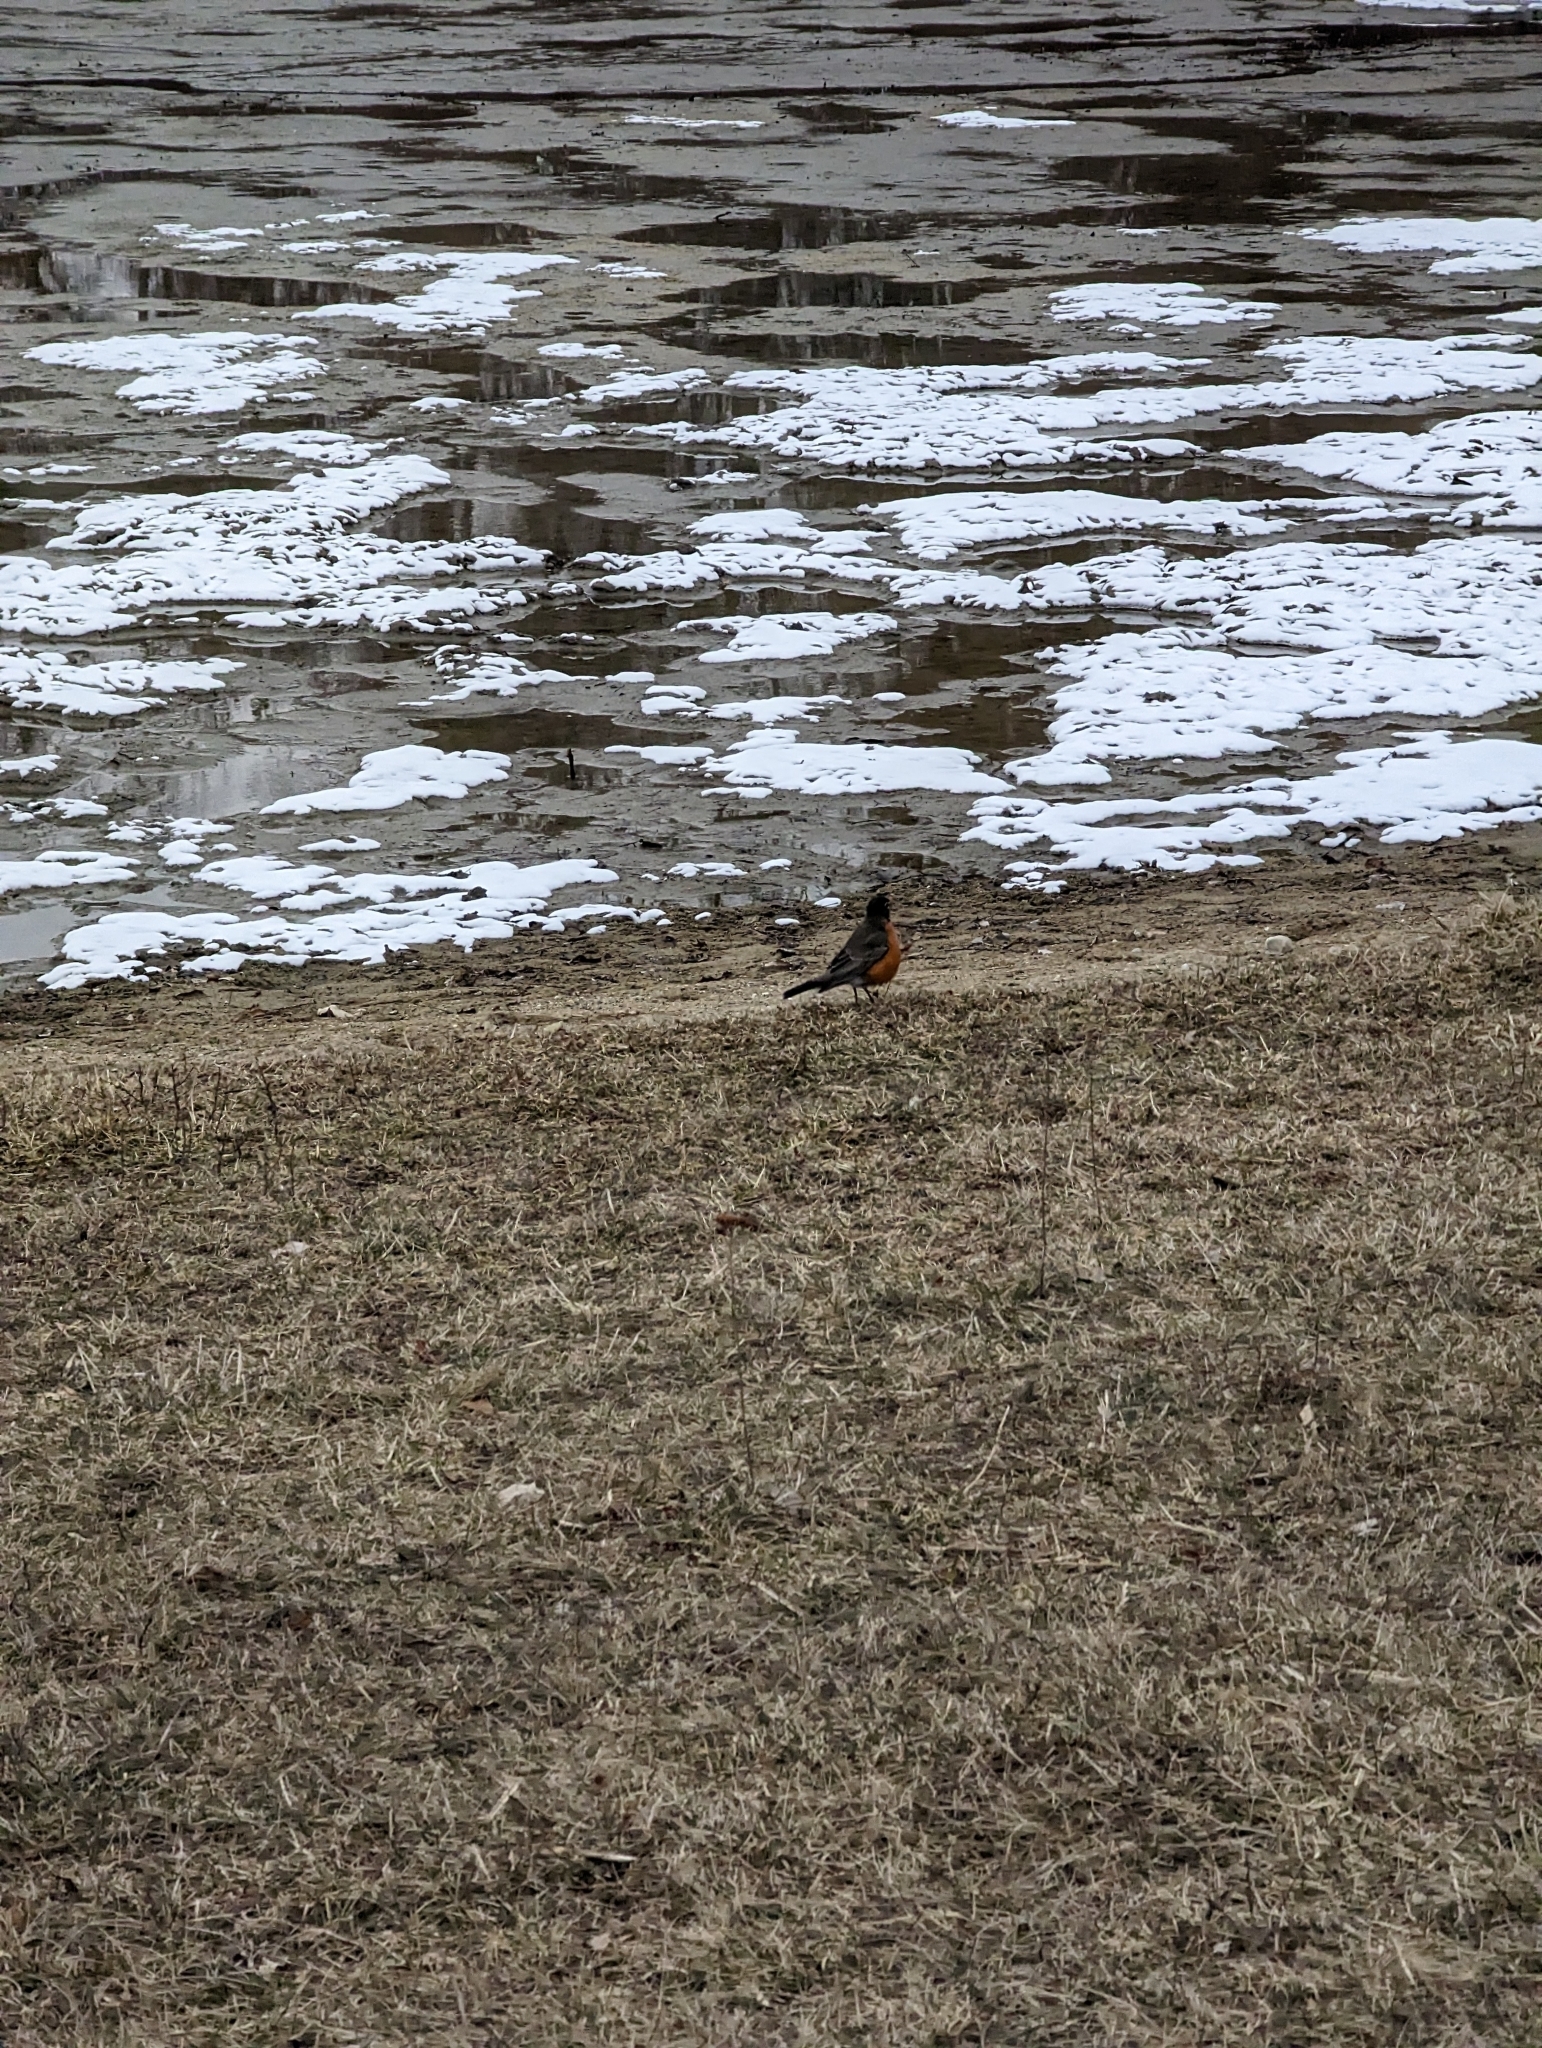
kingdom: Animalia
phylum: Chordata
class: Aves
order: Passeriformes
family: Turdidae
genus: Turdus
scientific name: Turdus migratorius
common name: American robin
